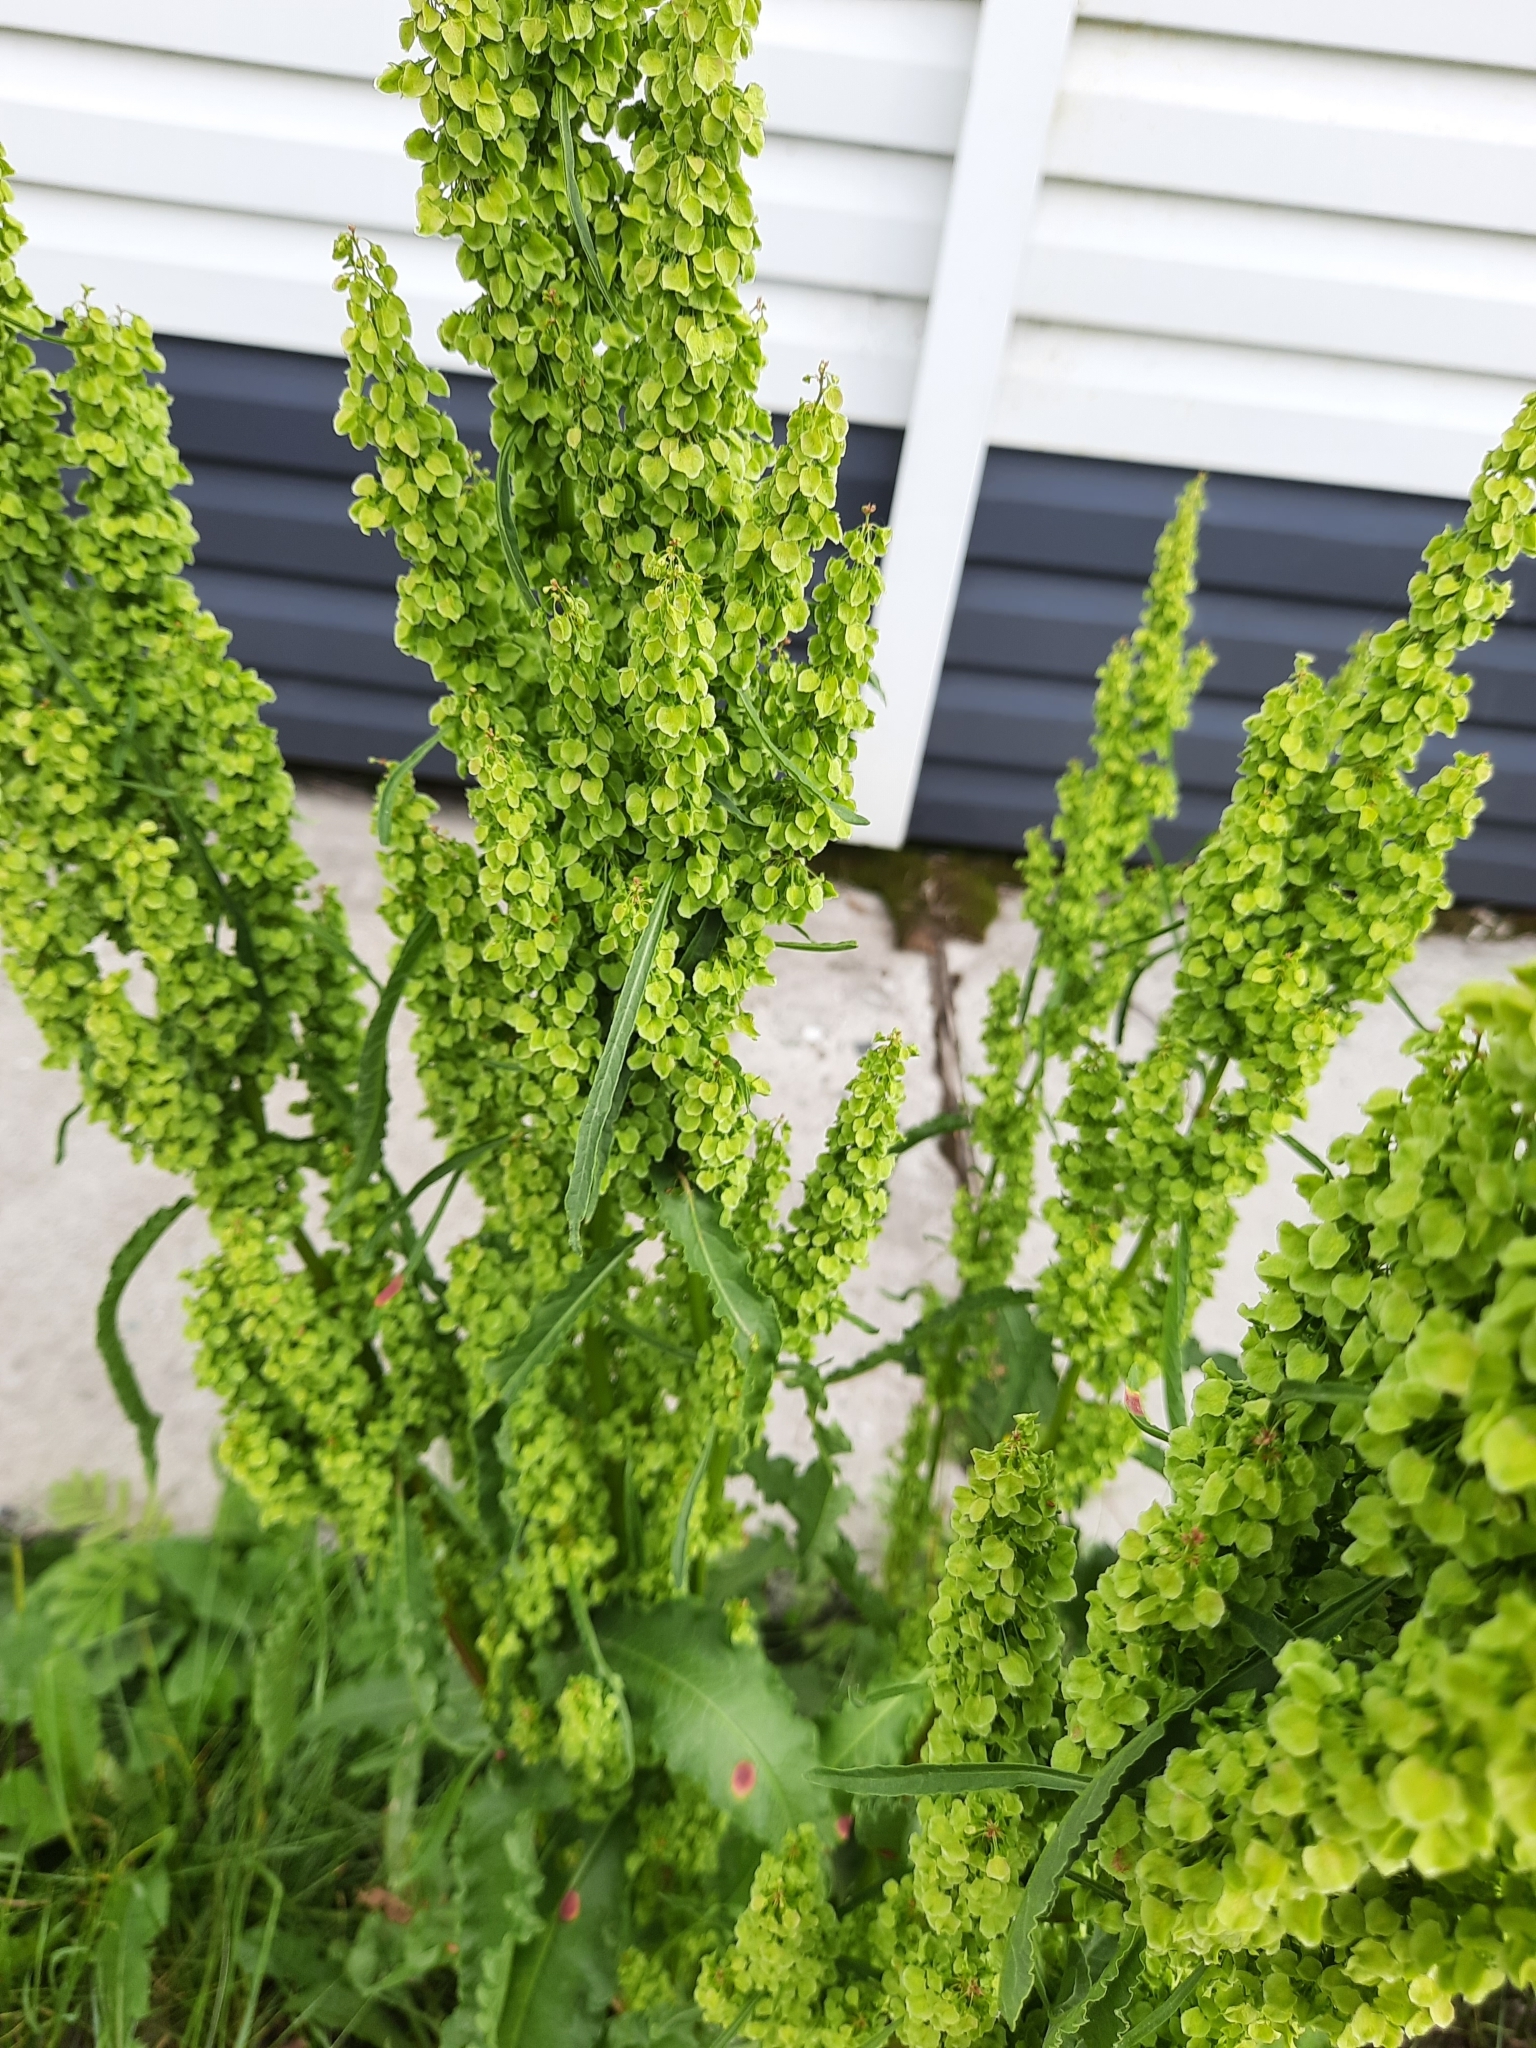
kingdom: Plantae
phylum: Tracheophyta
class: Magnoliopsida
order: Caryophyllales
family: Polygonaceae
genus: Rumex
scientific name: Rumex pseudonatronatus
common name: Field dock
